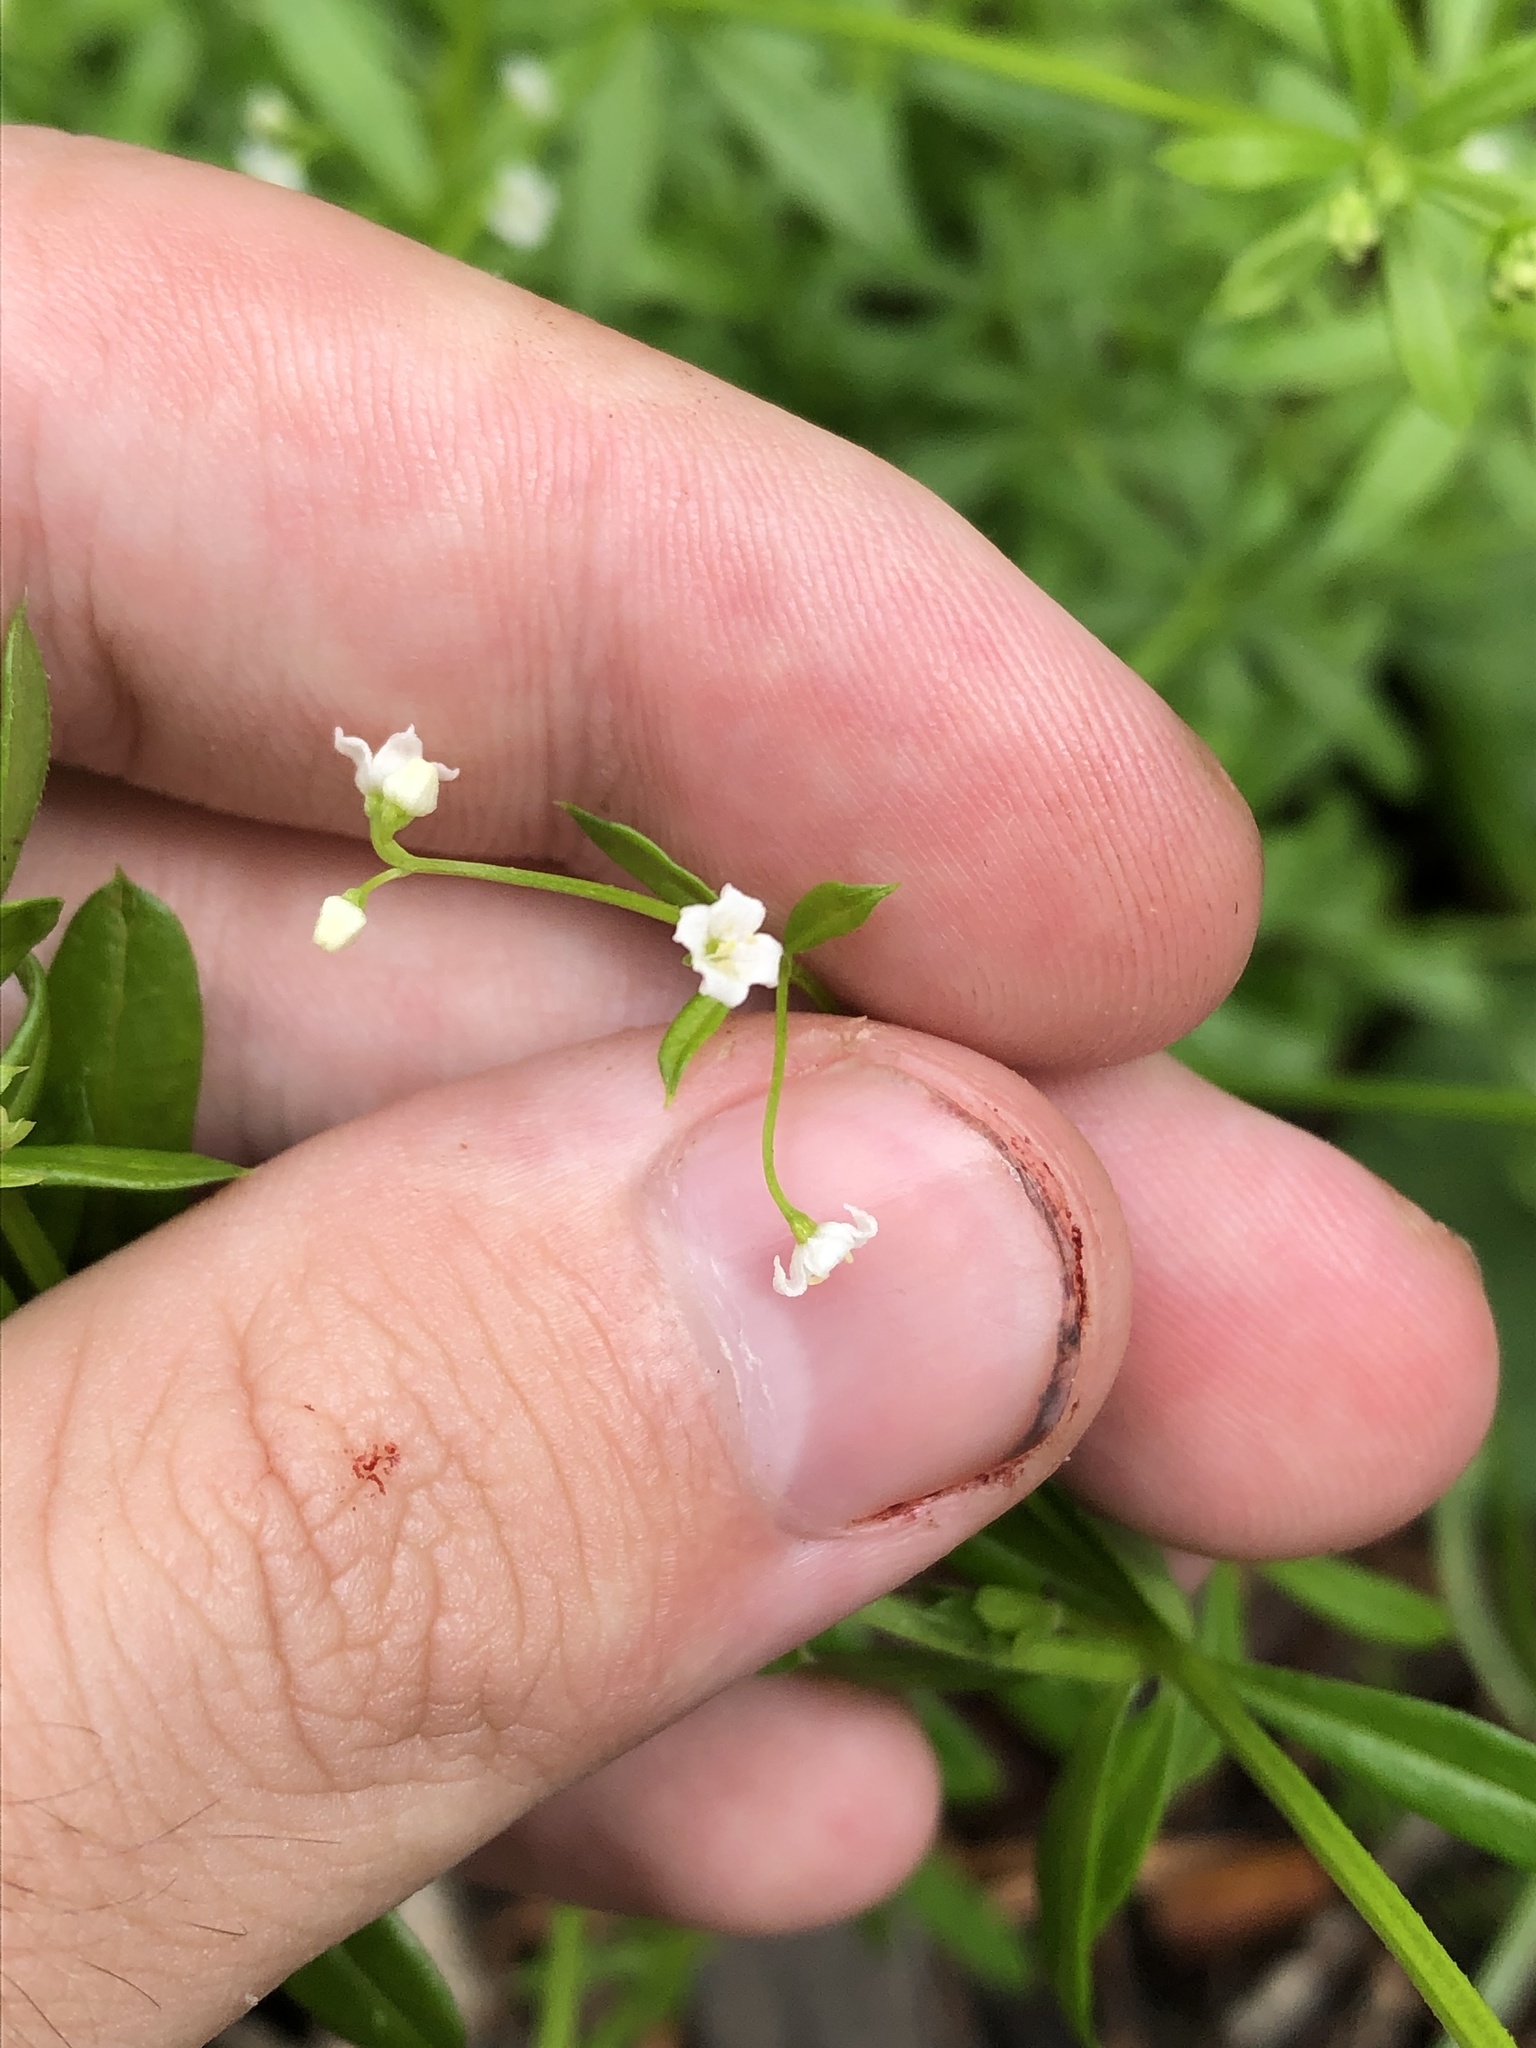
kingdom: Plantae
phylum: Tracheophyta
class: Magnoliopsida
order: Gentianales
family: Rubiaceae
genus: Galium
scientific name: Galium mexicanum
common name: Mexican bedstraw
